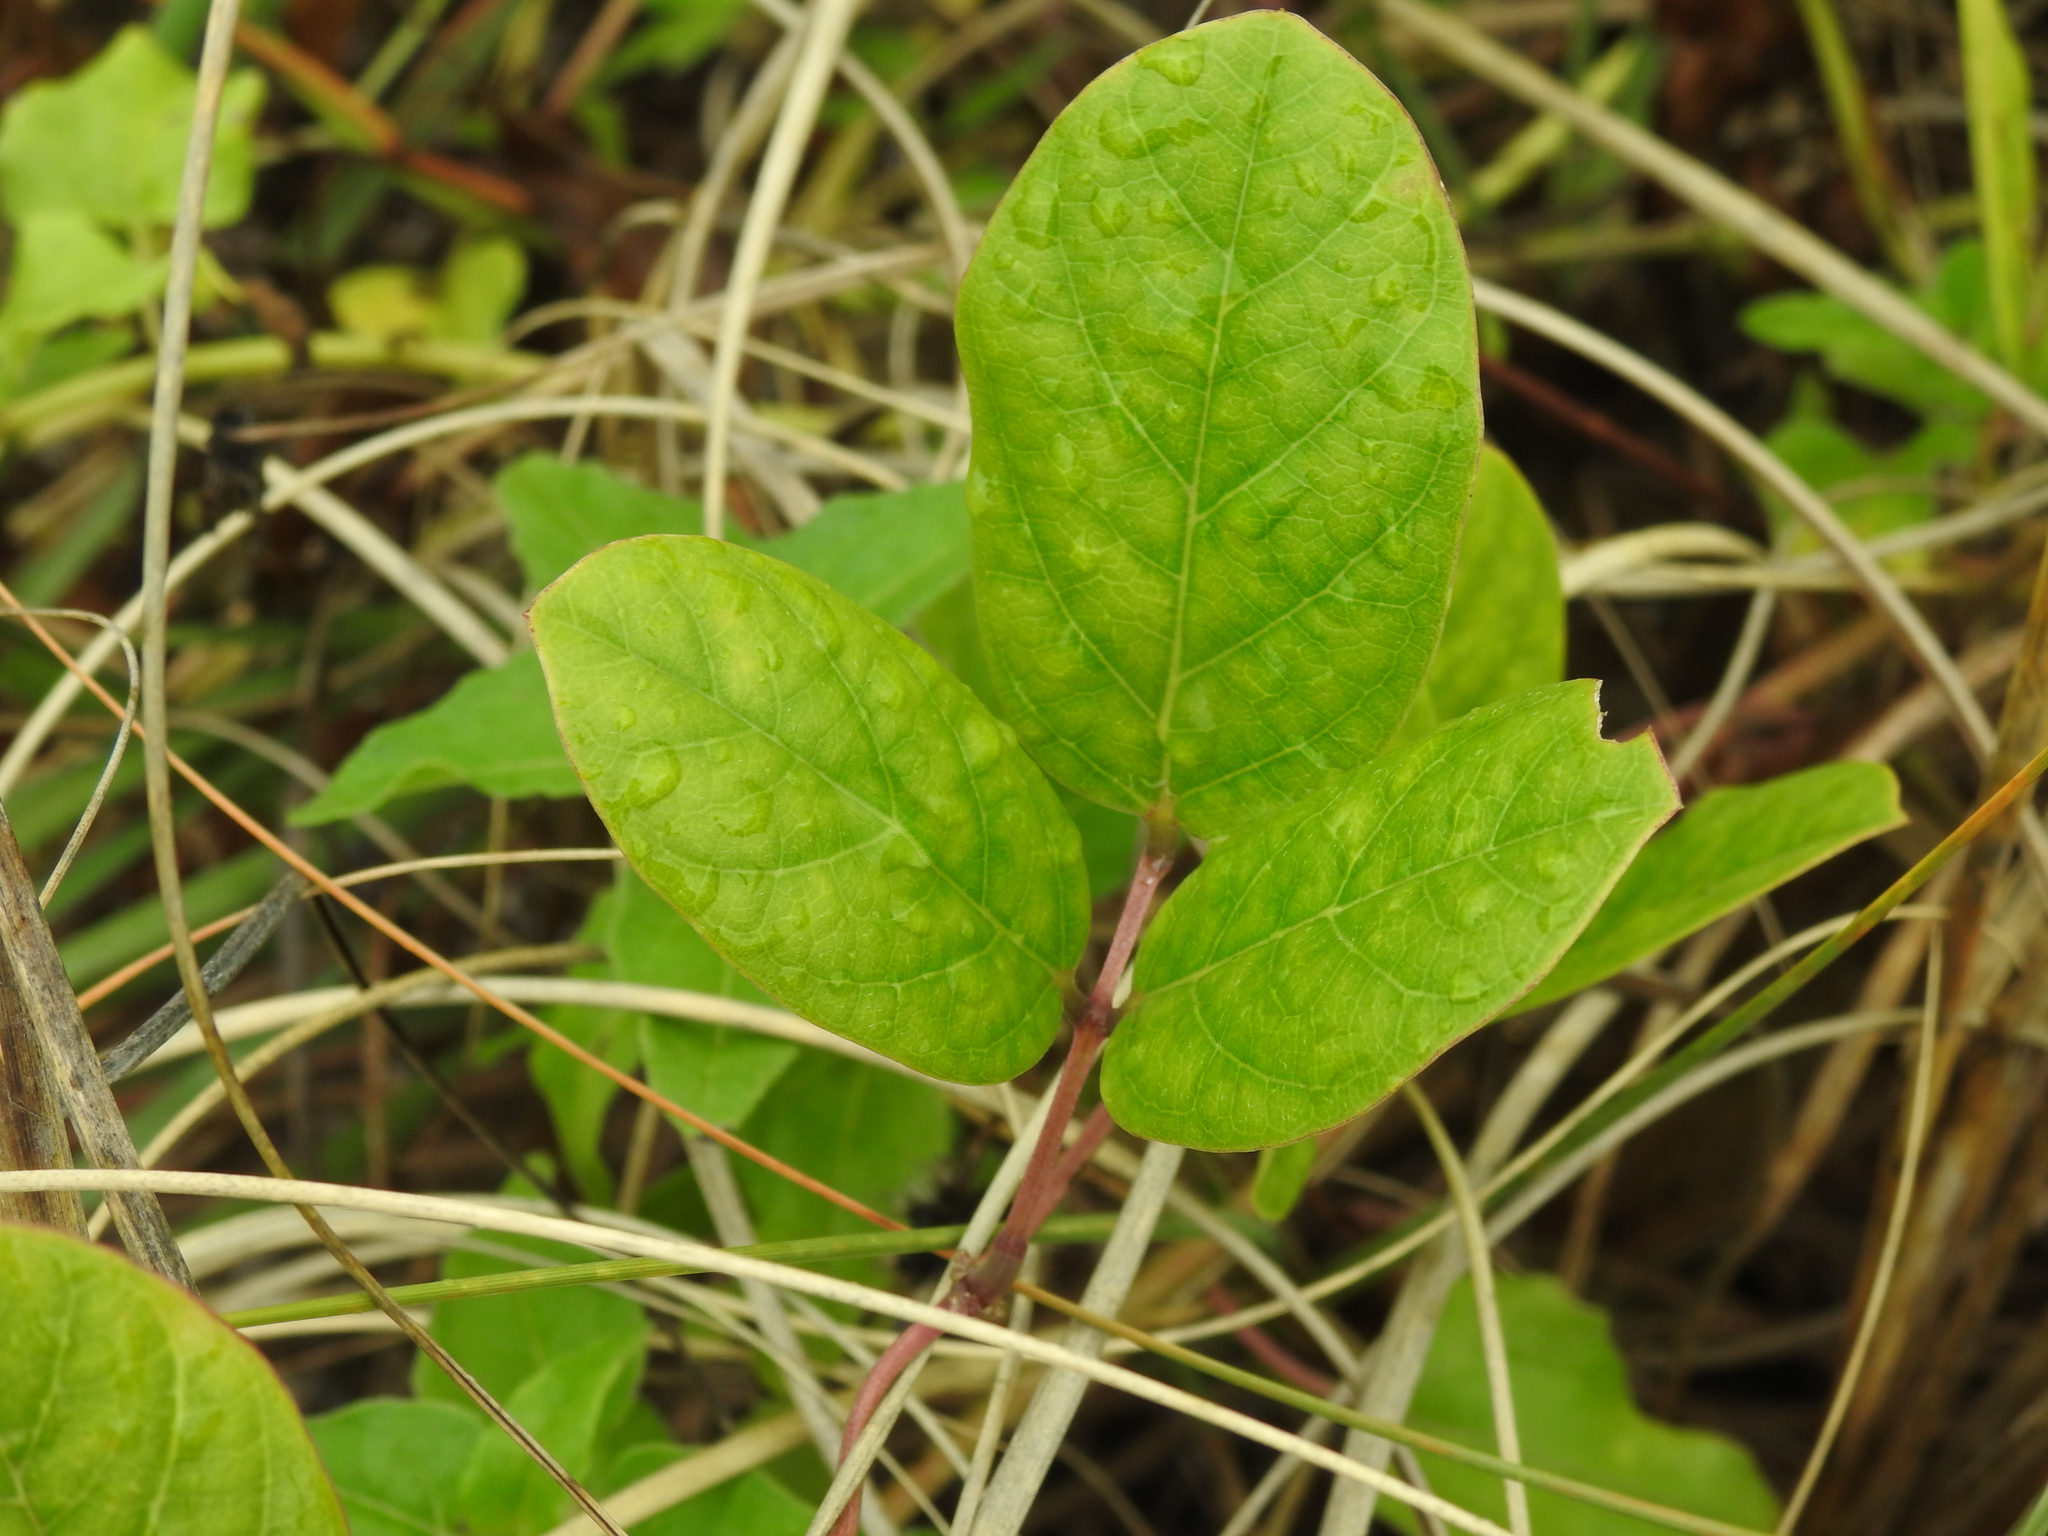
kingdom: Plantae
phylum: Tracheophyta
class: Magnoliopsida
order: Fabales
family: Fabaceae
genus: Canavalia
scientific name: Canavalia rosea
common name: Beach-bean
